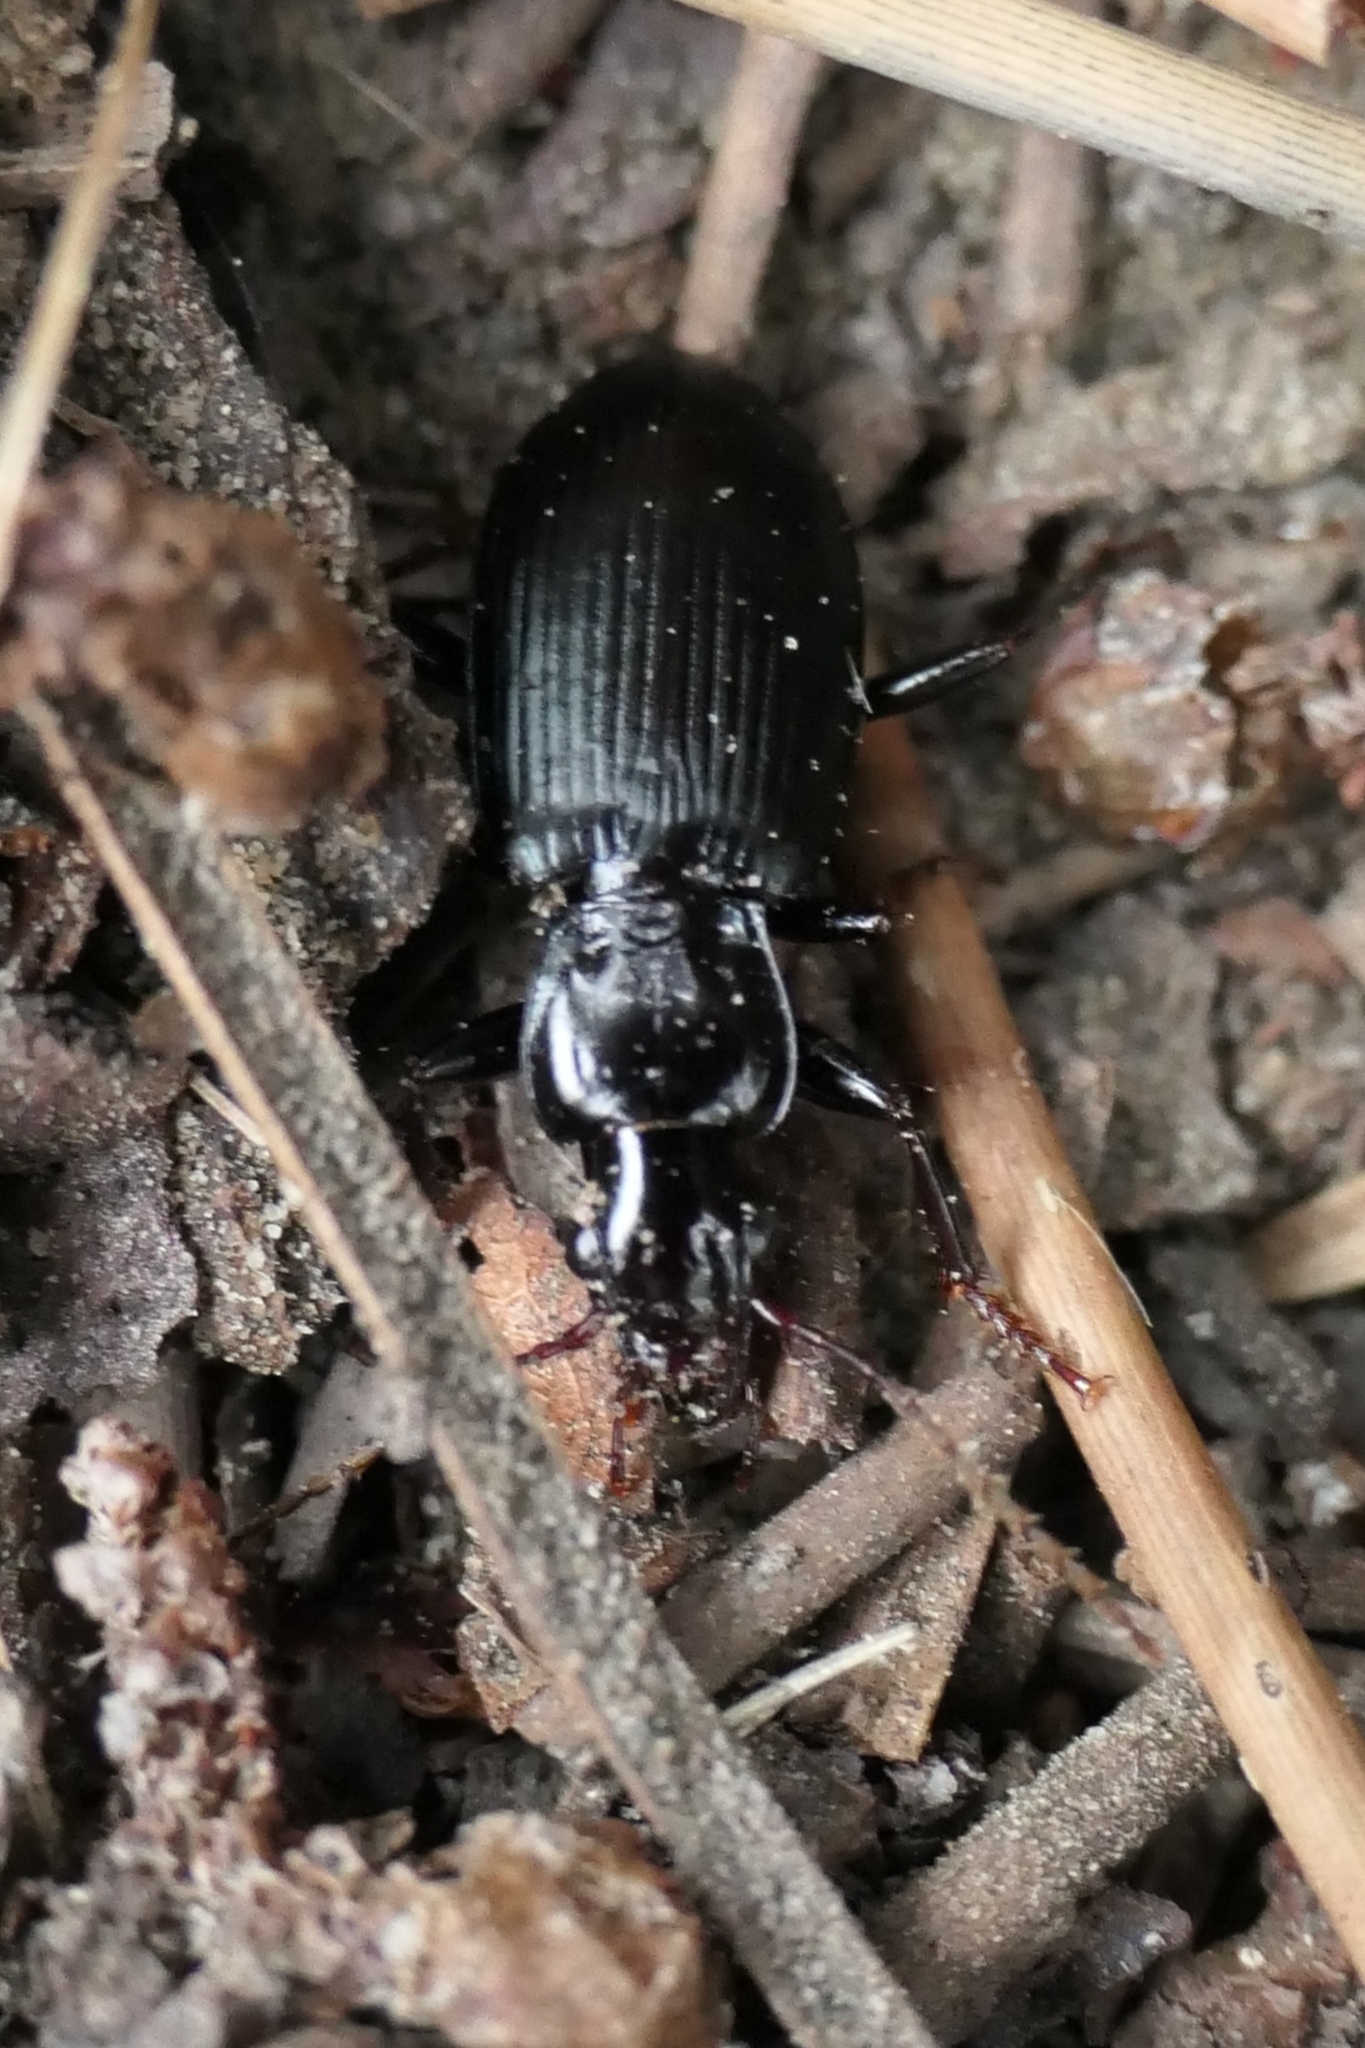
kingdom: Animalia
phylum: Arthropoda
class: Insecta
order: Coleoptera
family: Carabidae
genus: Laemostenus
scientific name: Laemostenus complanatus
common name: Cosmopolitan ground beetle
